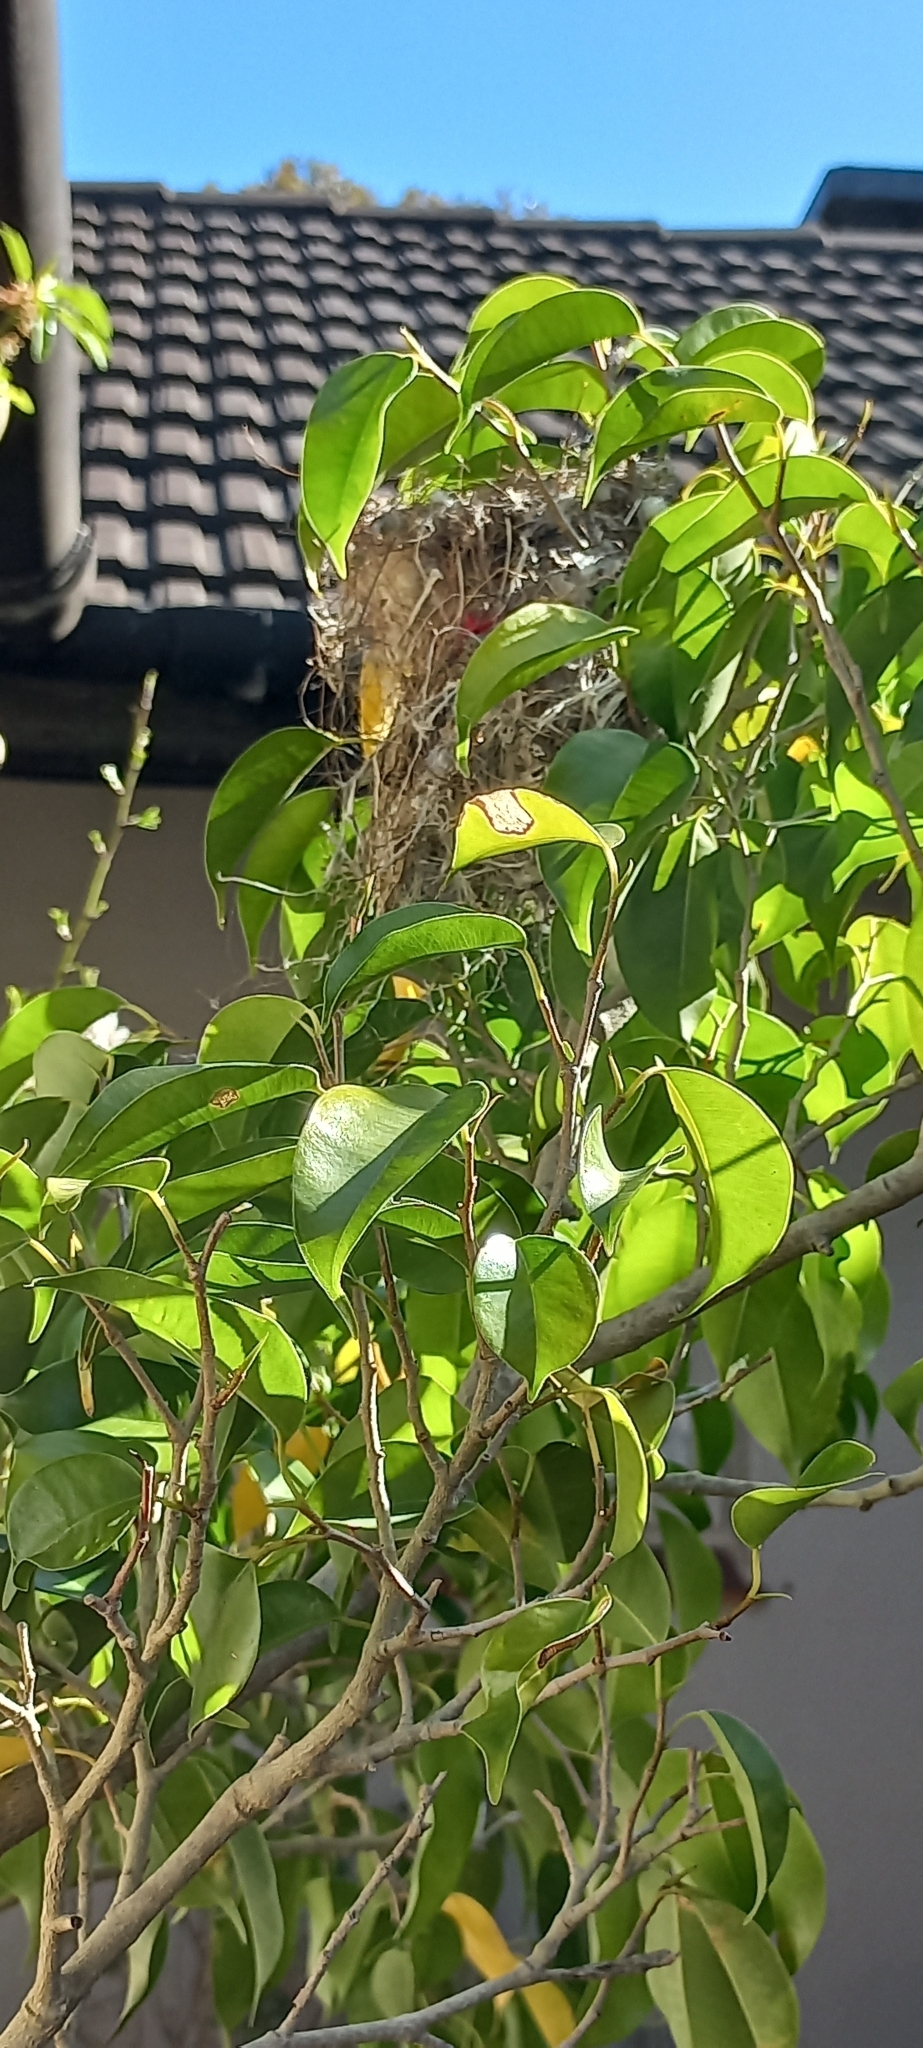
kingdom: Animalia
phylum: Chordata
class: Aves
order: Passeriformes
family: Nectariniidae
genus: Cinnyris
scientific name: Cinnyris chalybeus
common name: Southern double-collared sunbird
